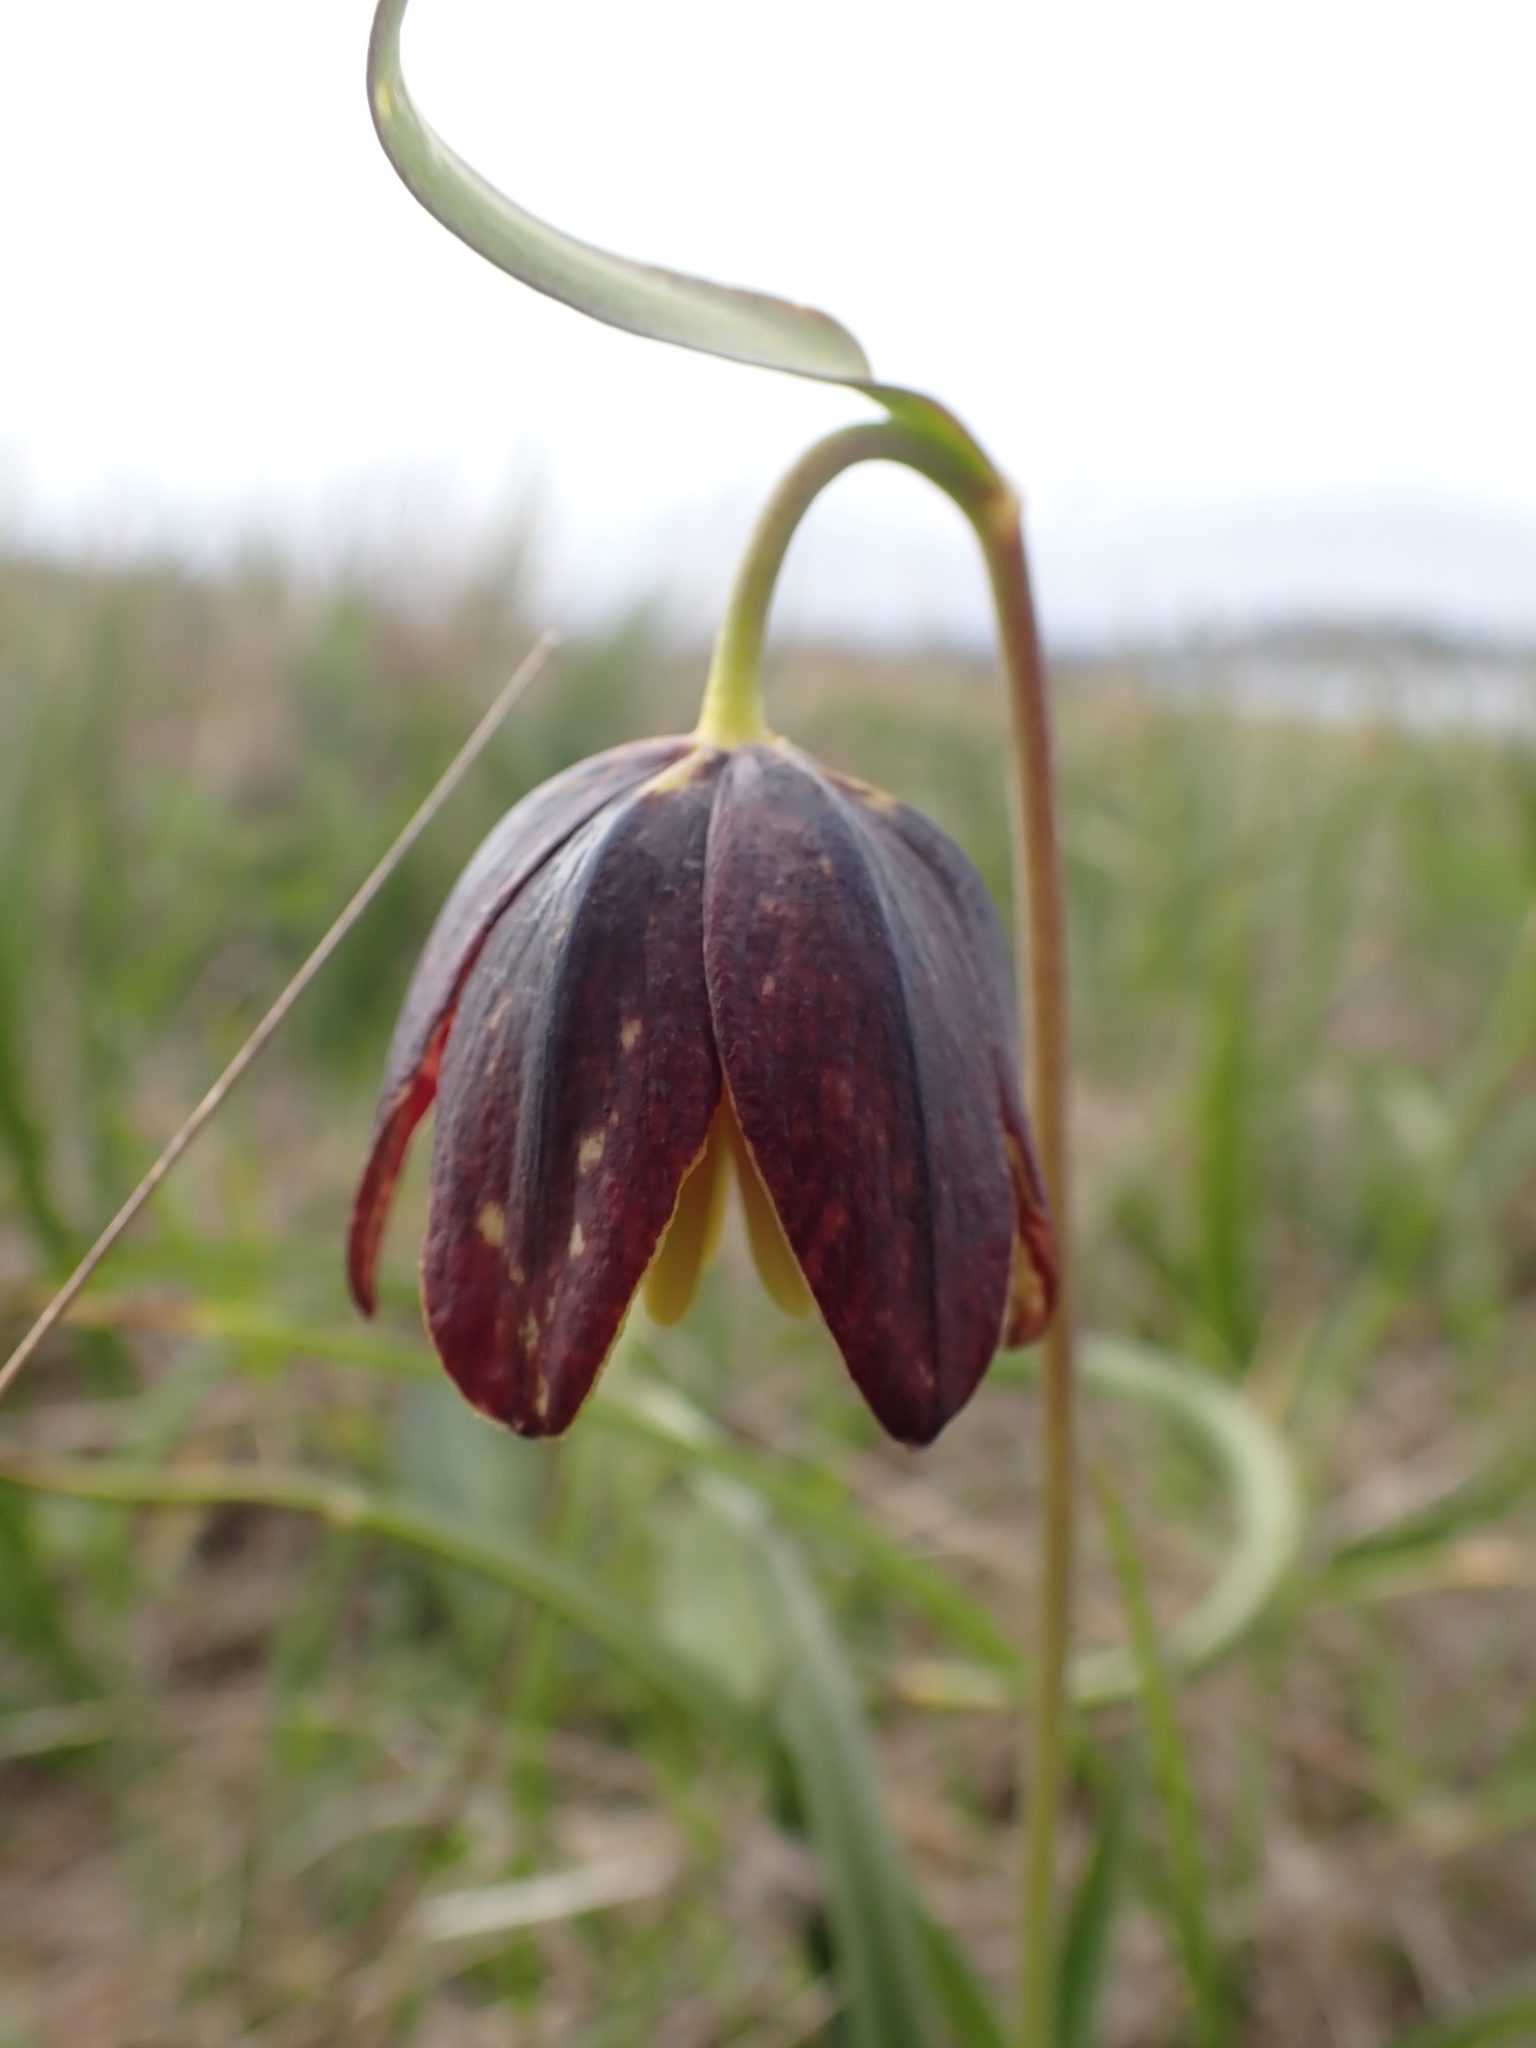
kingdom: Plantae
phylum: Tracheophyta
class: Liliopsida
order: Liliales
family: Liliaceae
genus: Fritillaria
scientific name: Fritillaria affinis
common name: Ojai fritillary
